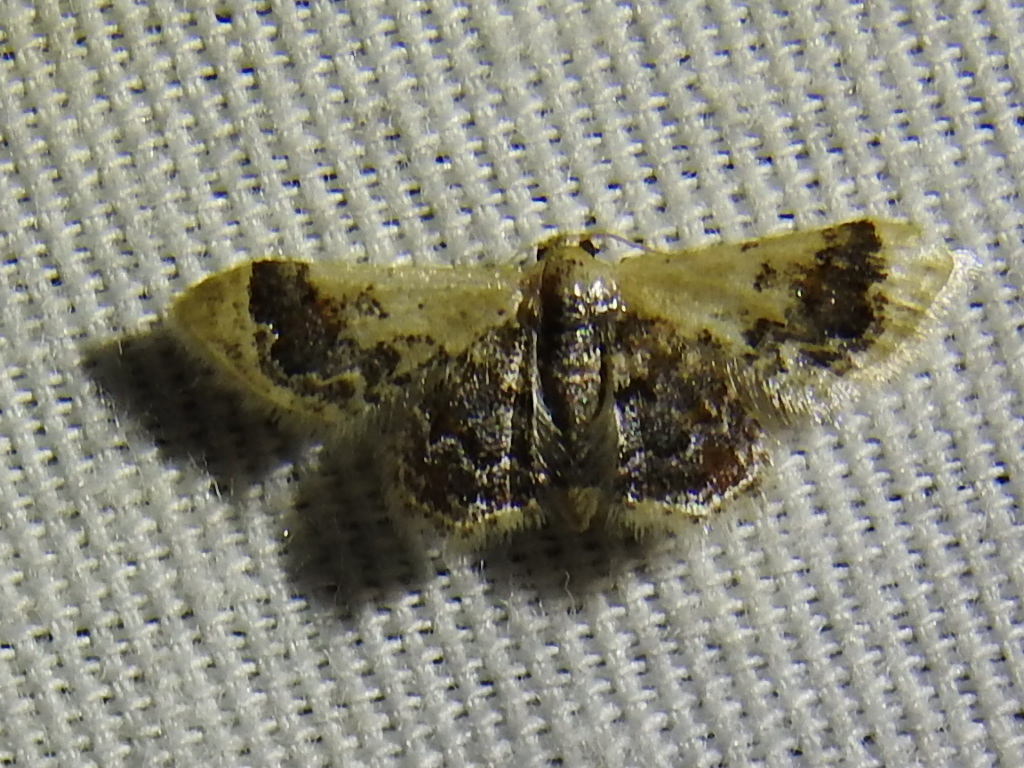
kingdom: Animalia
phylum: Arthropoda
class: Insecta
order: Lepidoptera
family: Geometridae
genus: Idaea
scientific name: Idaea asceta
